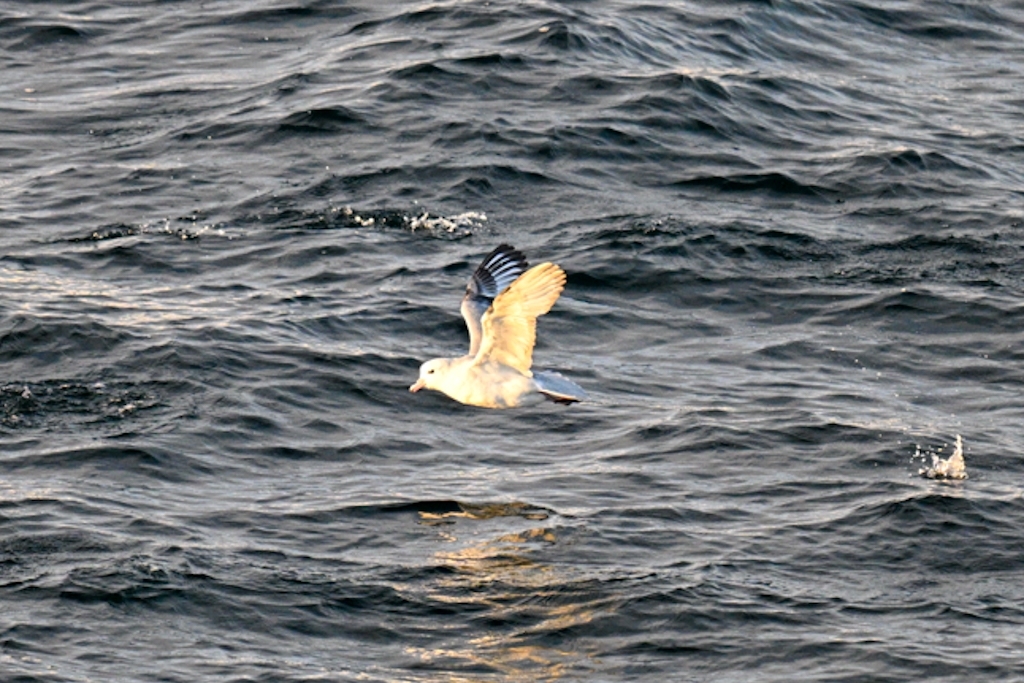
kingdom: Animalia
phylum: Chordata
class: Aves
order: Procellariiformes
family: Procellariidae
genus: Fulmarus
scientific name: Fulmarus glacialoides
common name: Southern fulmar
